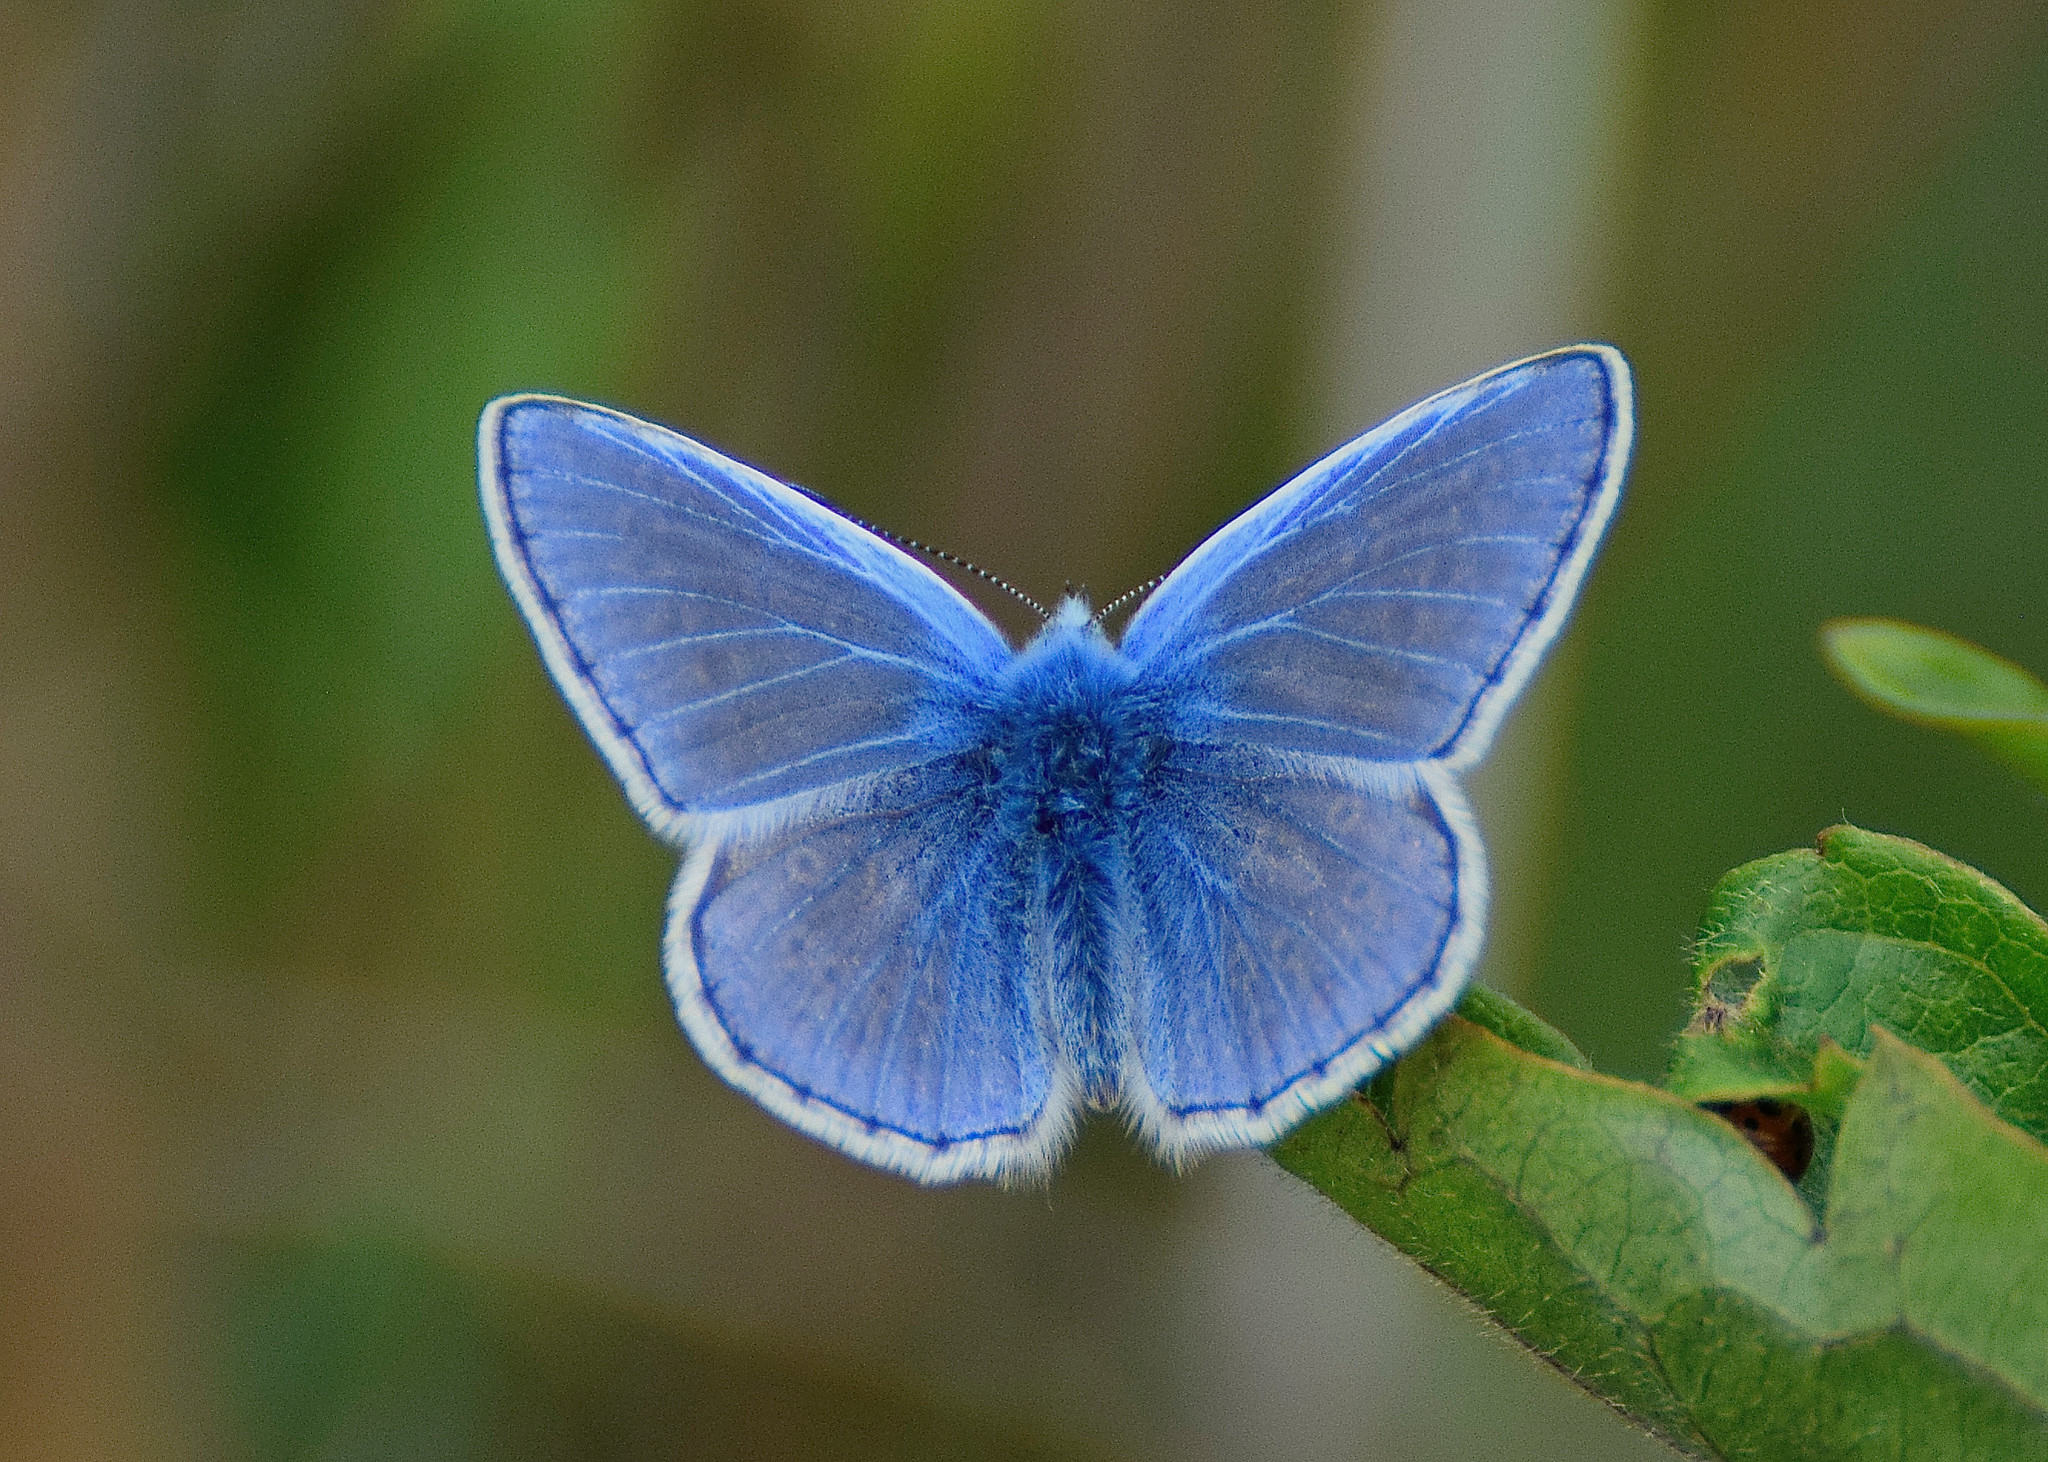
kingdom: Animalia
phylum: Arthropoda
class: Insecta
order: Lepidoptera
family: Lycaenidae
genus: Polyommatus
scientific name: Polyommatus icarus
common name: Common blue
